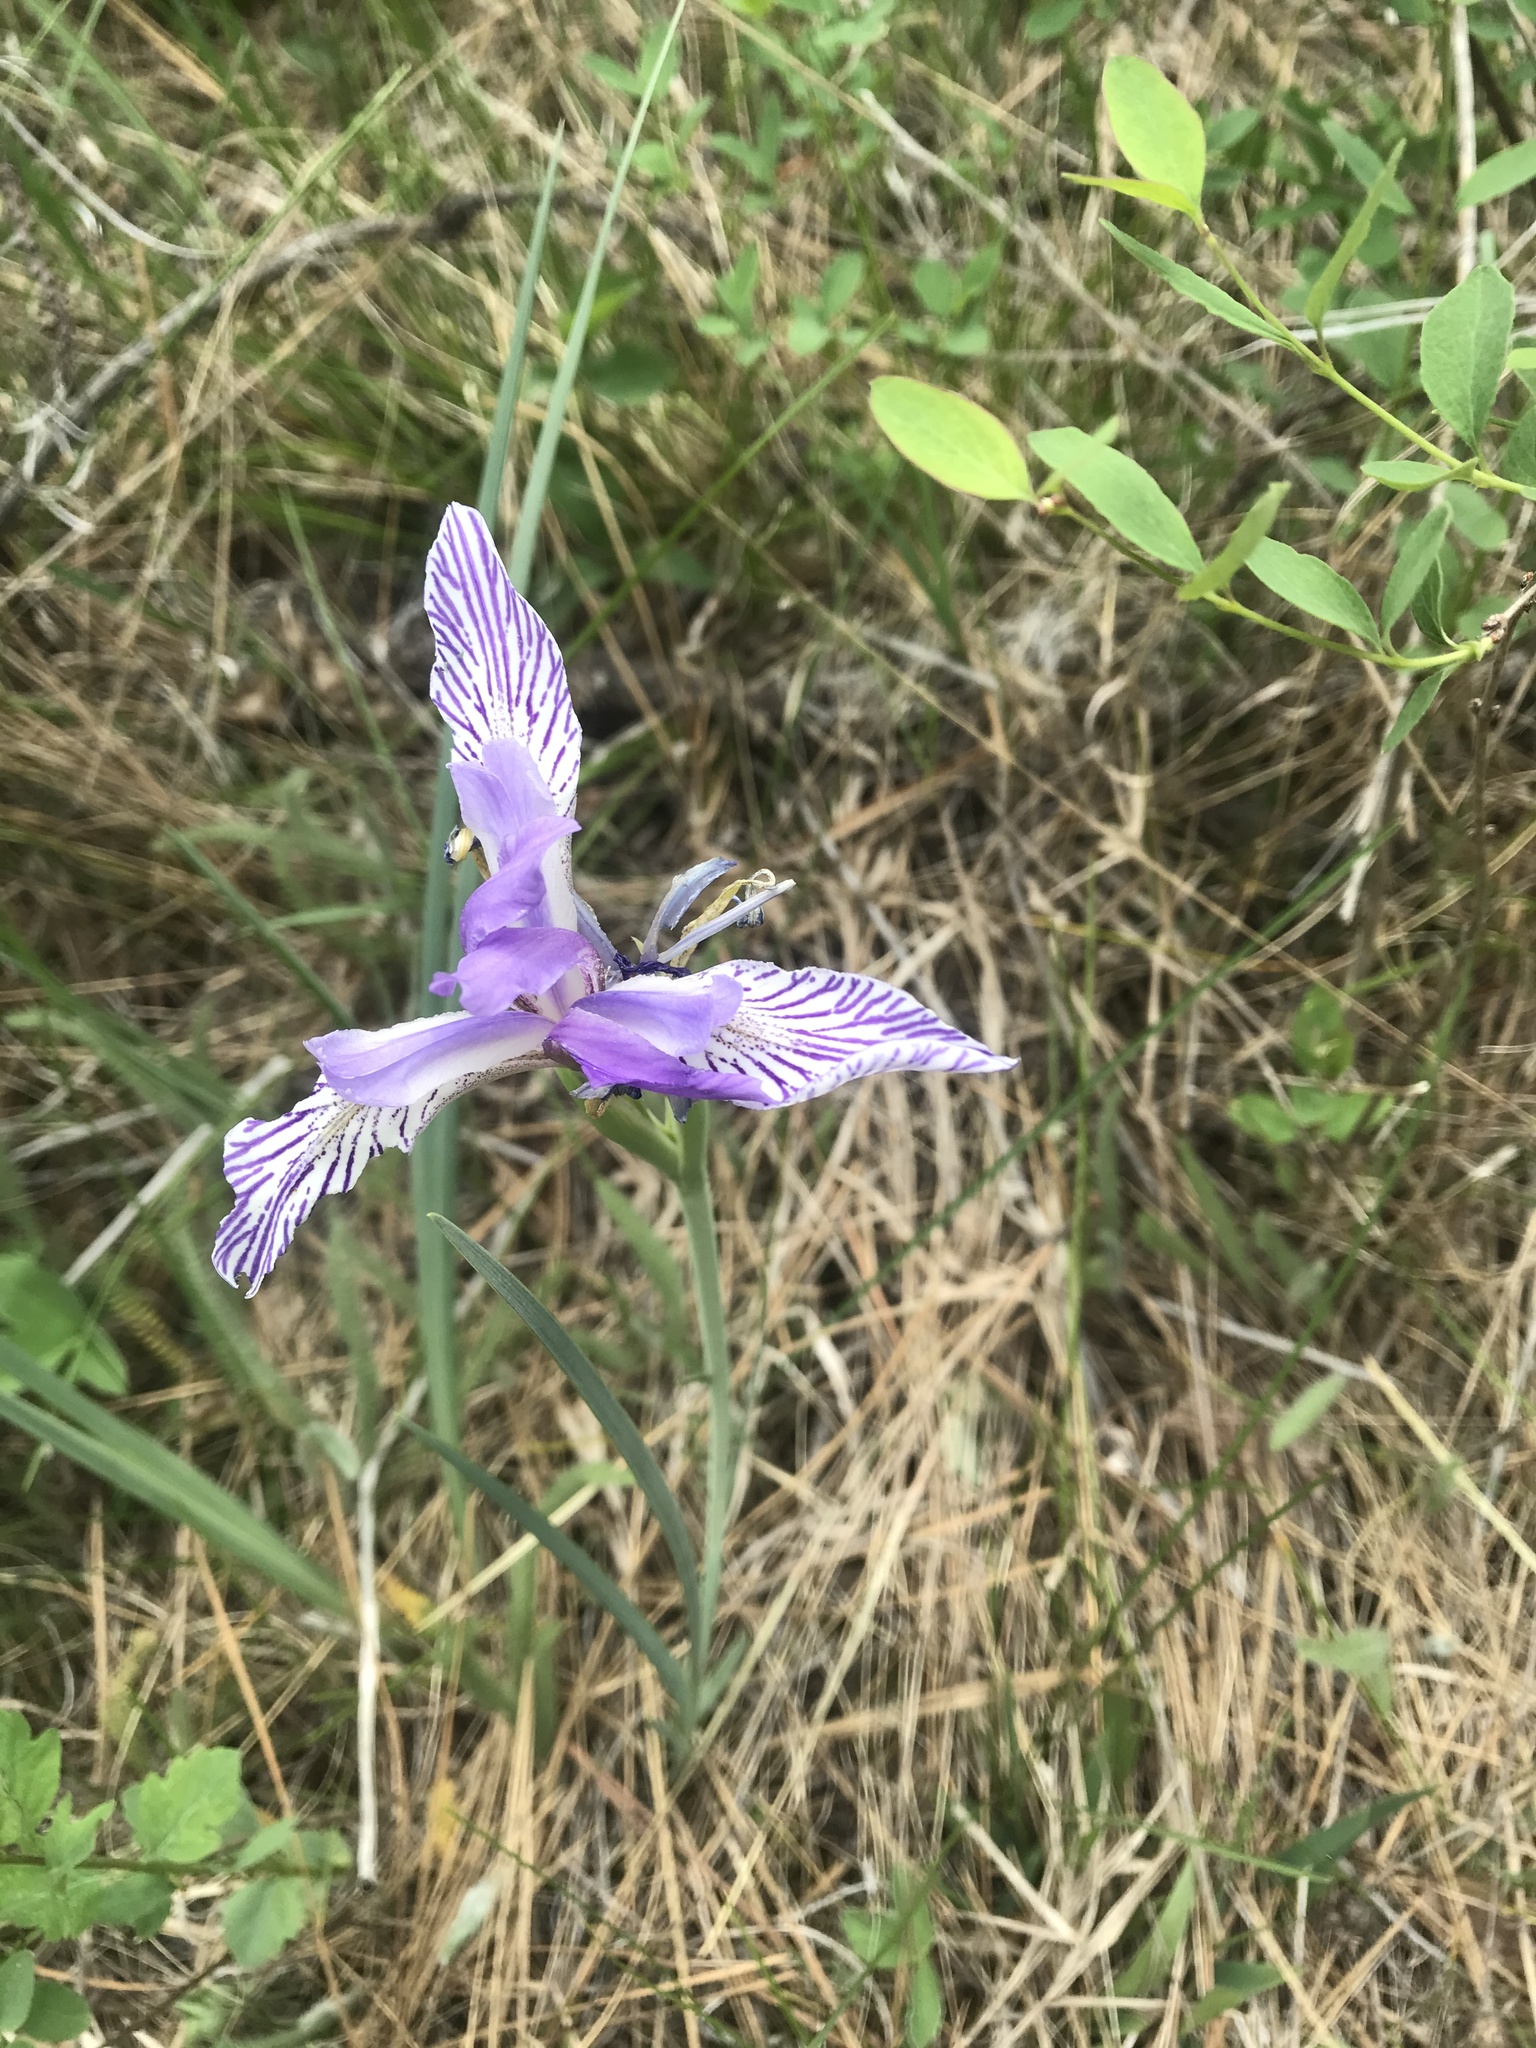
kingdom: Plantae
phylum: Tracheophyta
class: Liliopsida
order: Asparagales
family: Iridaceae
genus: Iris
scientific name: Iris missouriensis
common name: Rocky mountain iris
